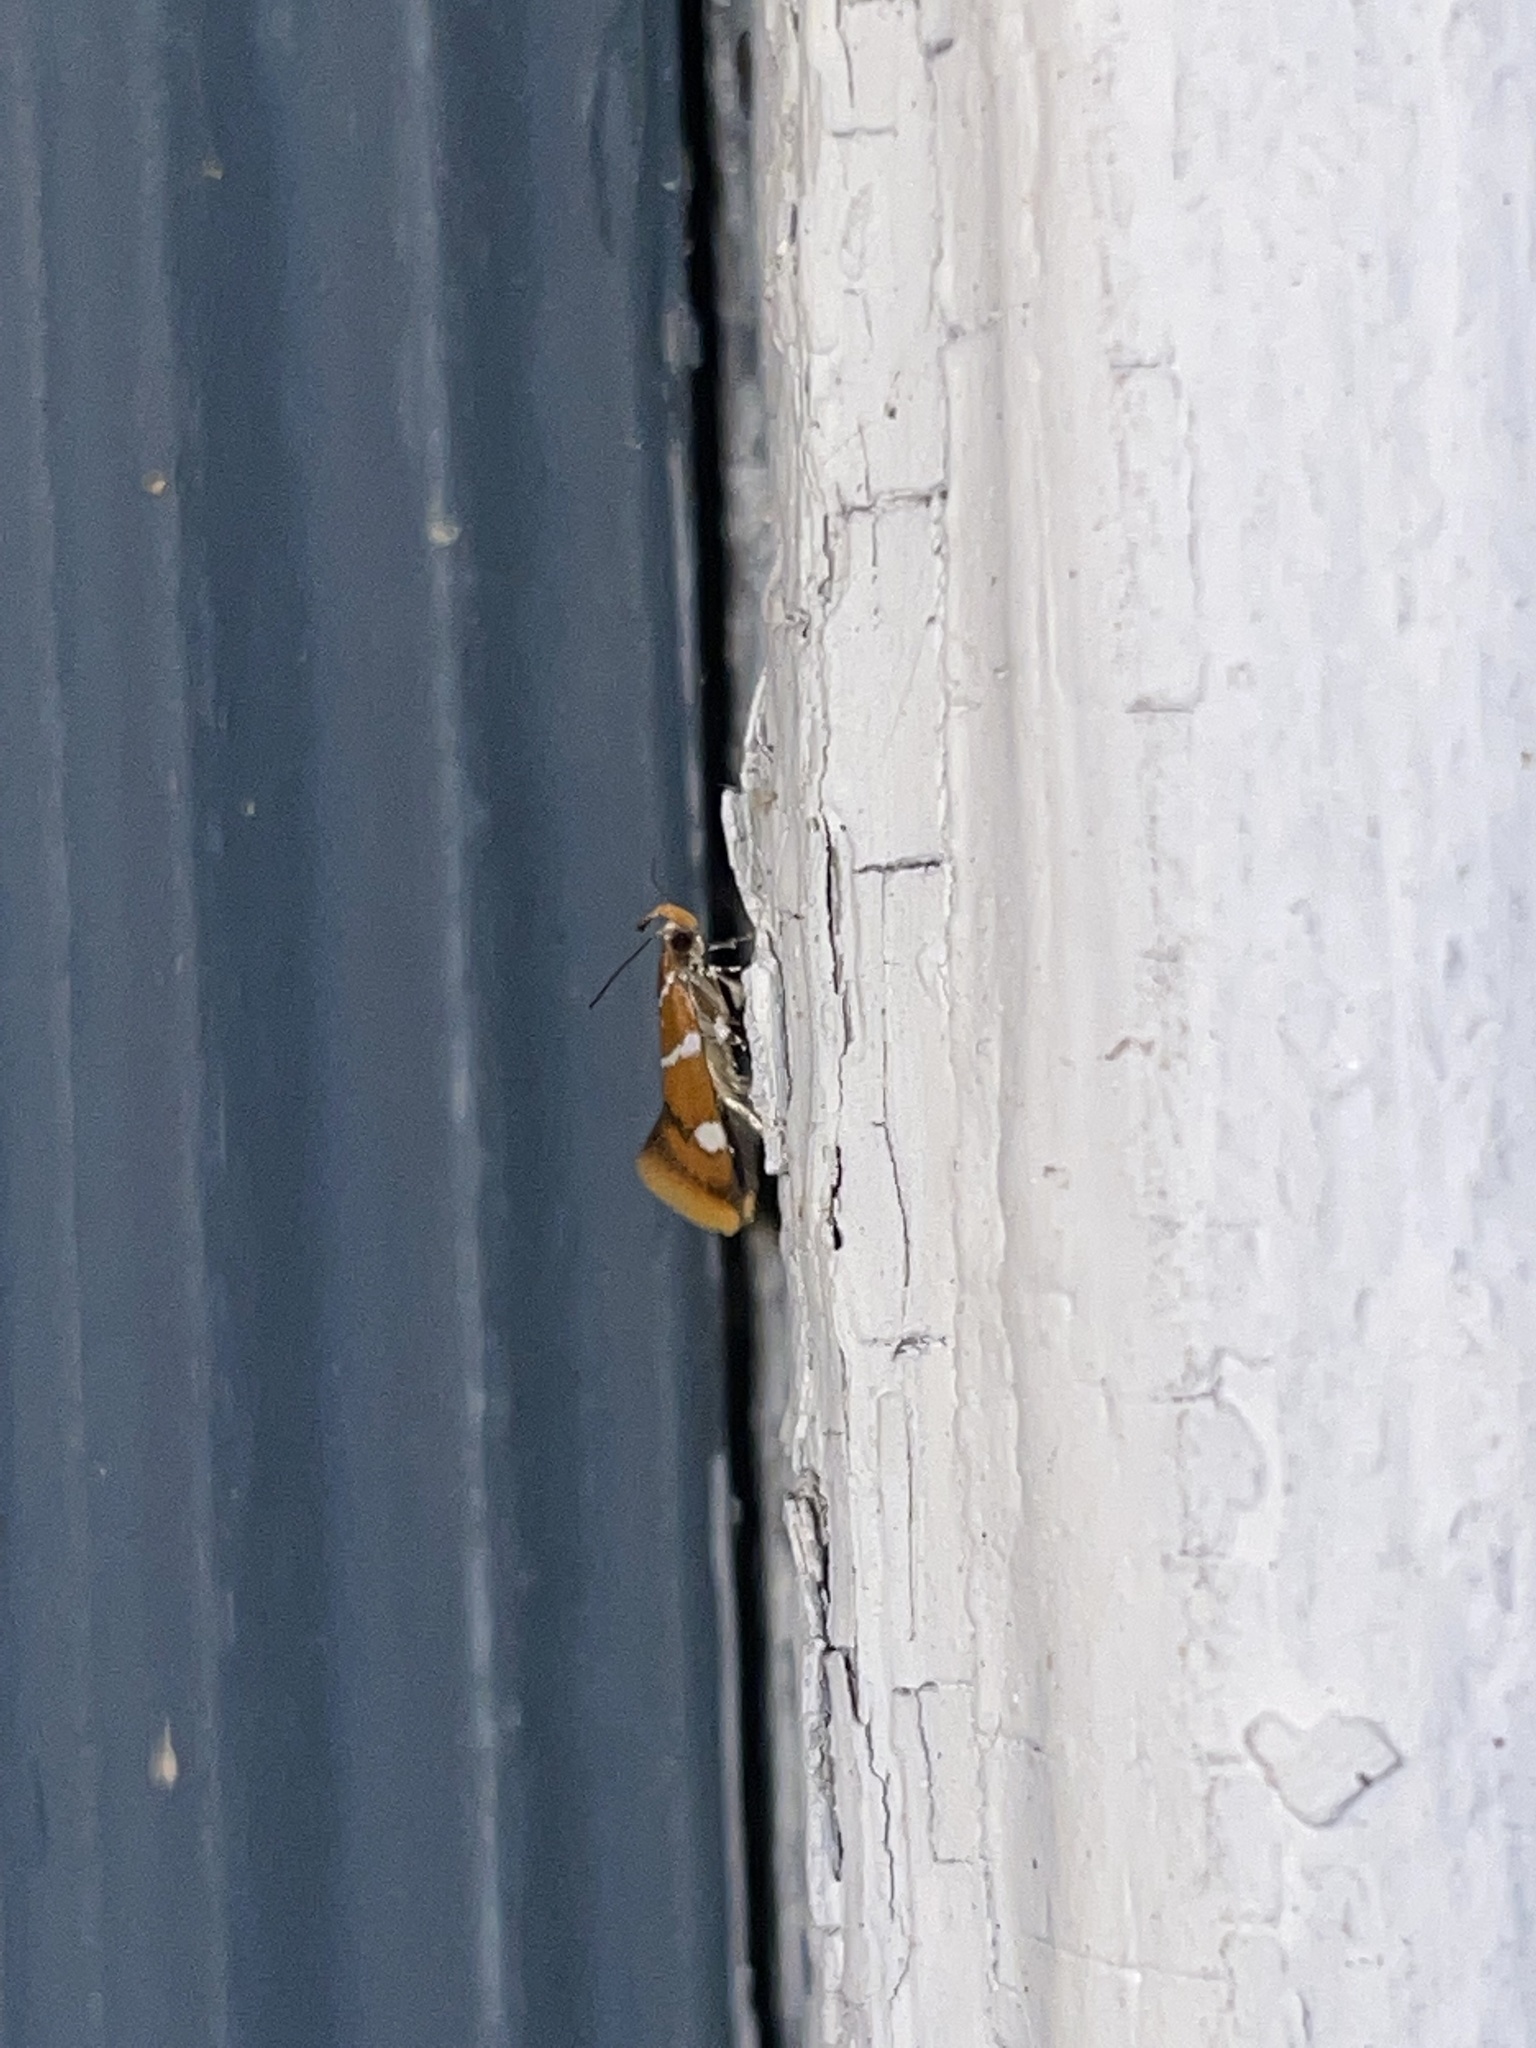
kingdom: Animalia
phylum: Arthropoda
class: Insecta
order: Lepidoptera
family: Oecophoridae
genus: Promalactis
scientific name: Promalactis suzukiella
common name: Moth
